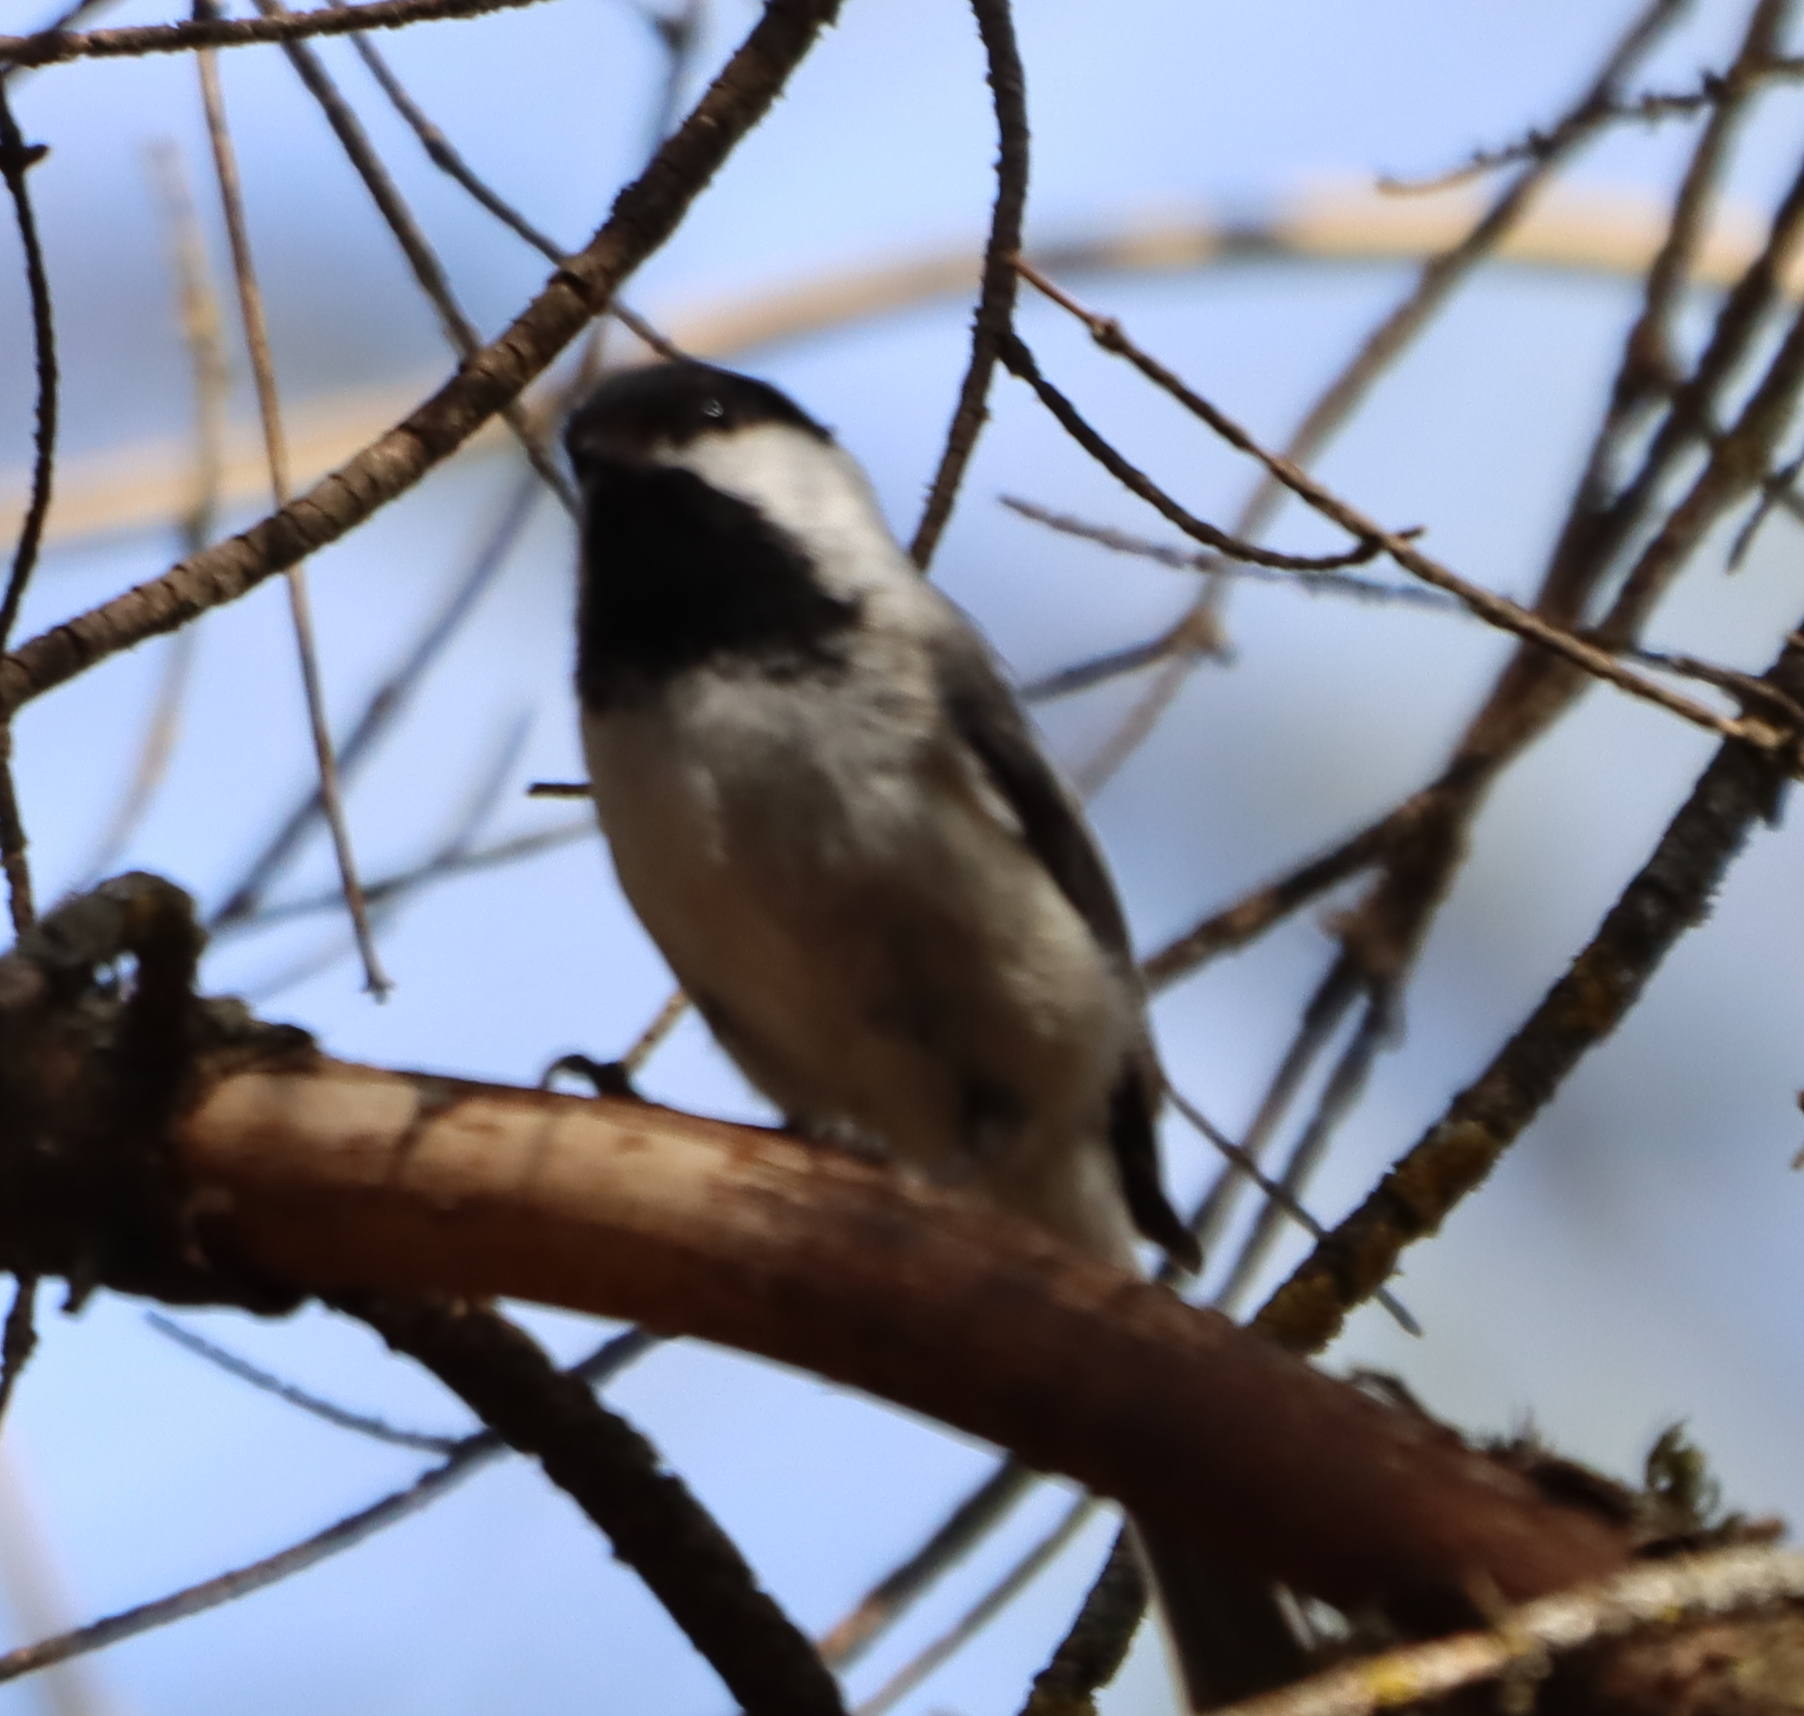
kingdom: Animalia
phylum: Chordata
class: Aves
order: Passeriformes
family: Paridae
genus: Poecile
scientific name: Poecile atricapillus
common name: Black-capped chickadee
